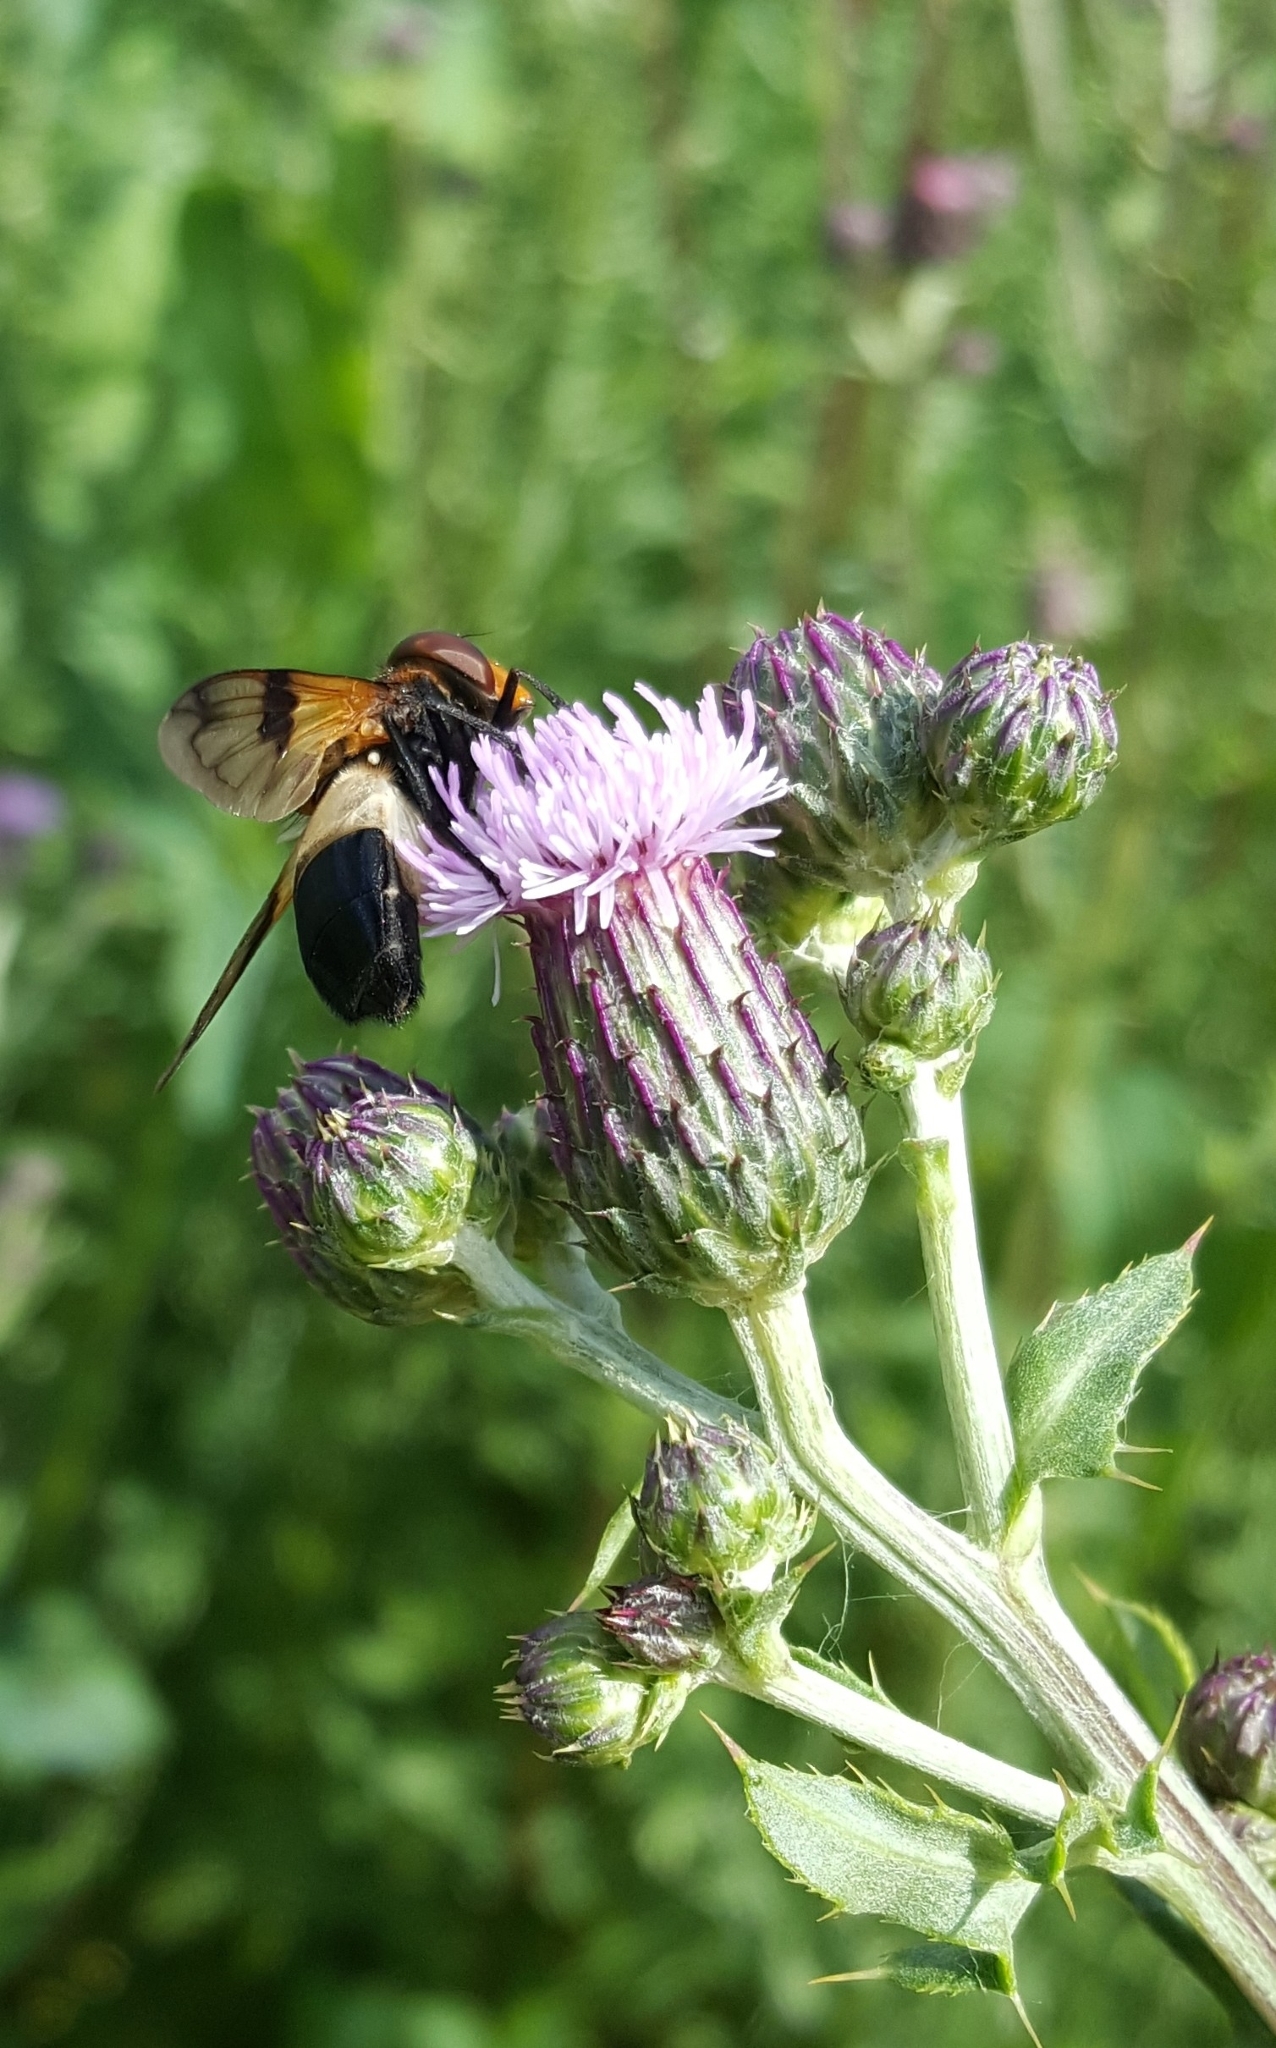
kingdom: Animalia
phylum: Arthropoda
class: Insecta
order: Diptera
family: Syrphidae
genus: Volucella
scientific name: Volucella pellucens
